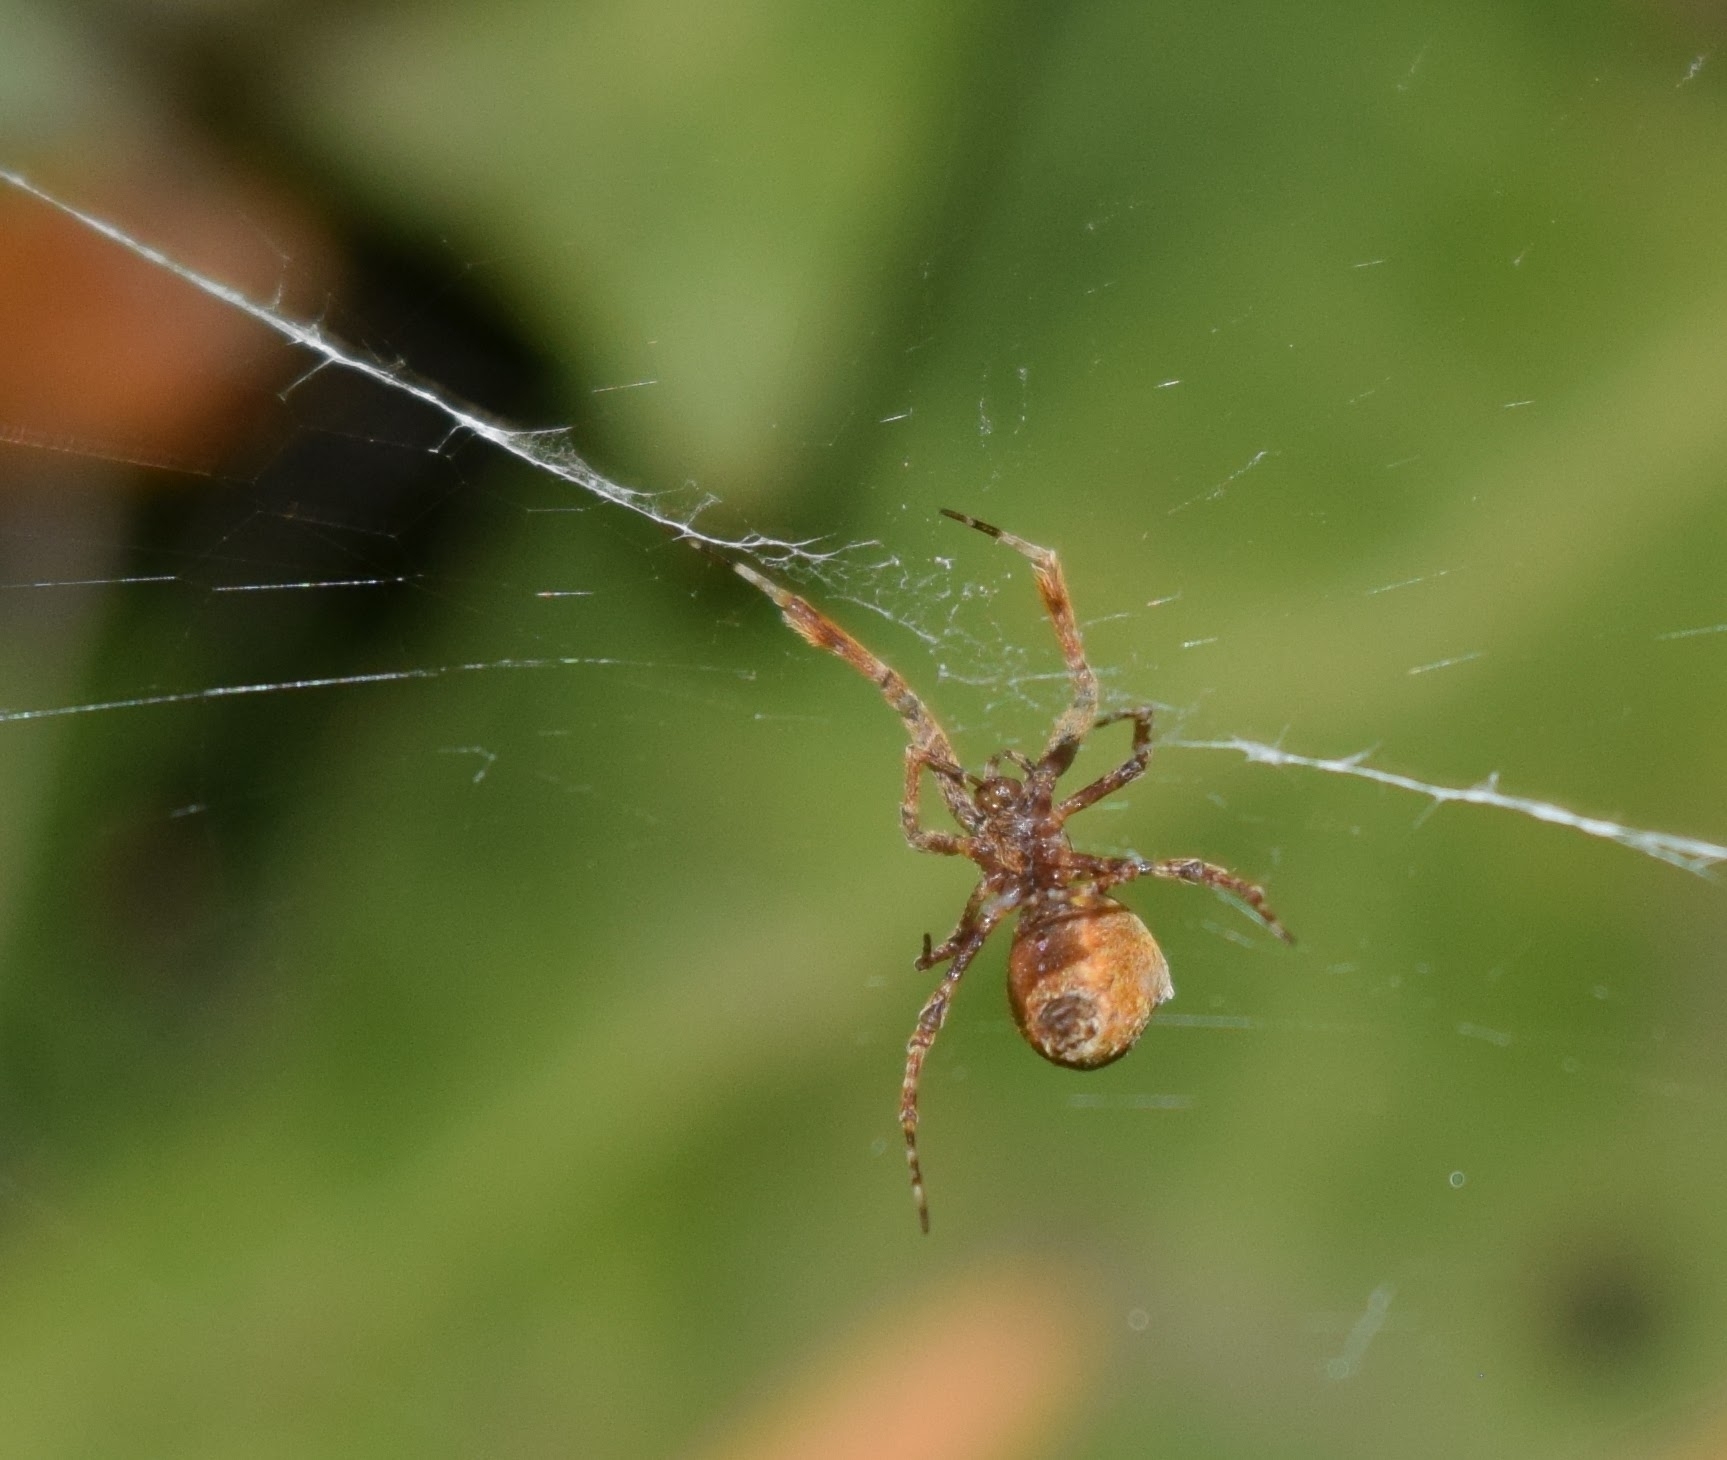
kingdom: Animalia
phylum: Arthropoda
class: Arachnida
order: Araneae
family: Uloboridae
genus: Uloborus
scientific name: Uloborus diversus
